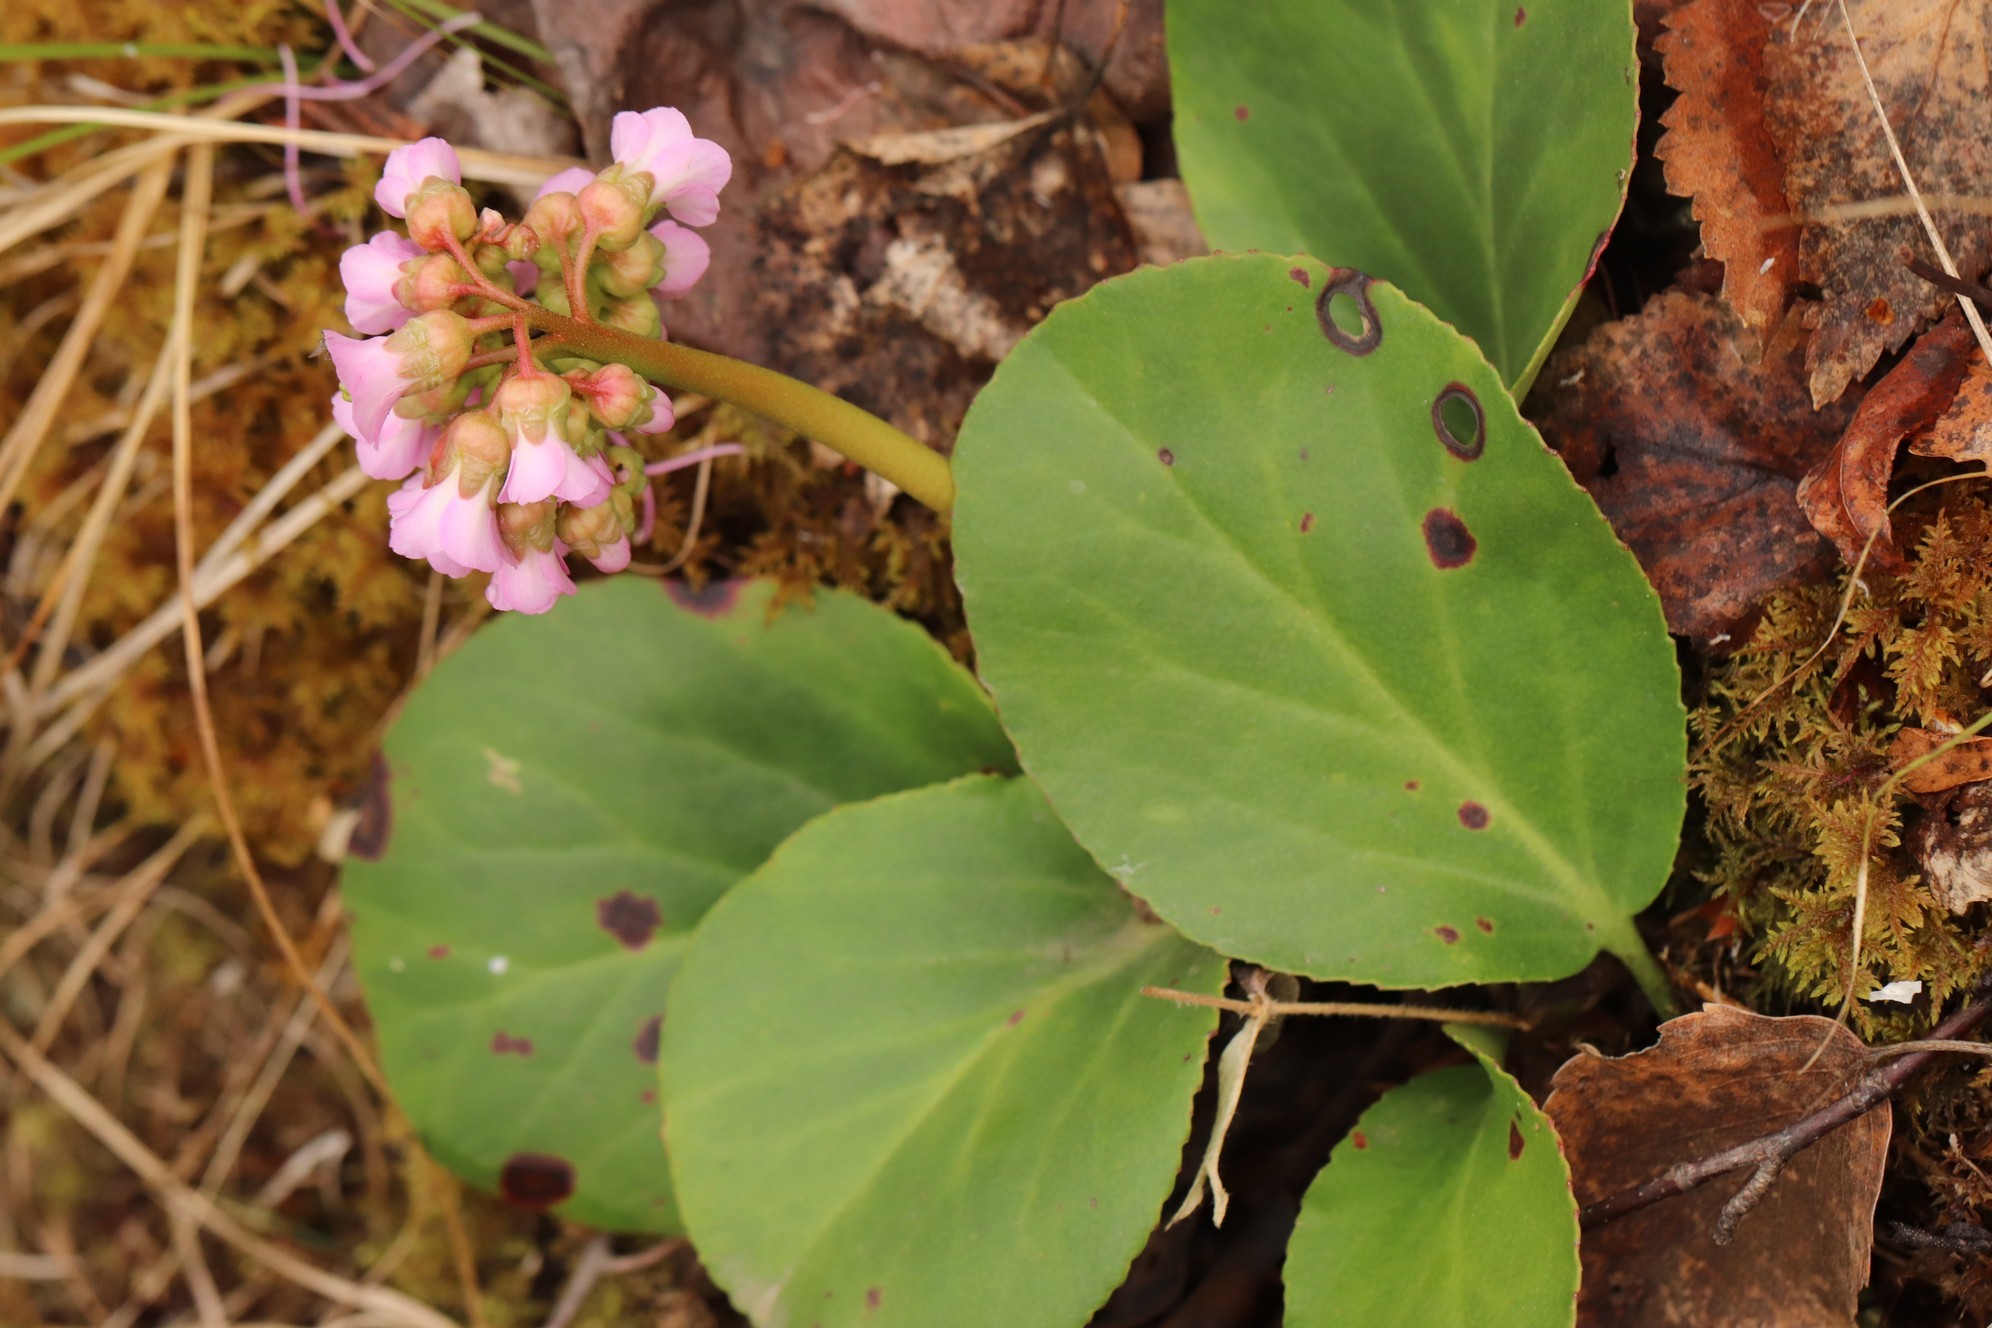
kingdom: Plantae
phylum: Tracheophyta
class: Magnoliopsida
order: Saxifragales
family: Saxifragaceae
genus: Bergenia
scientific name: Bergenia crassifolia
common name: Elephant-ears
